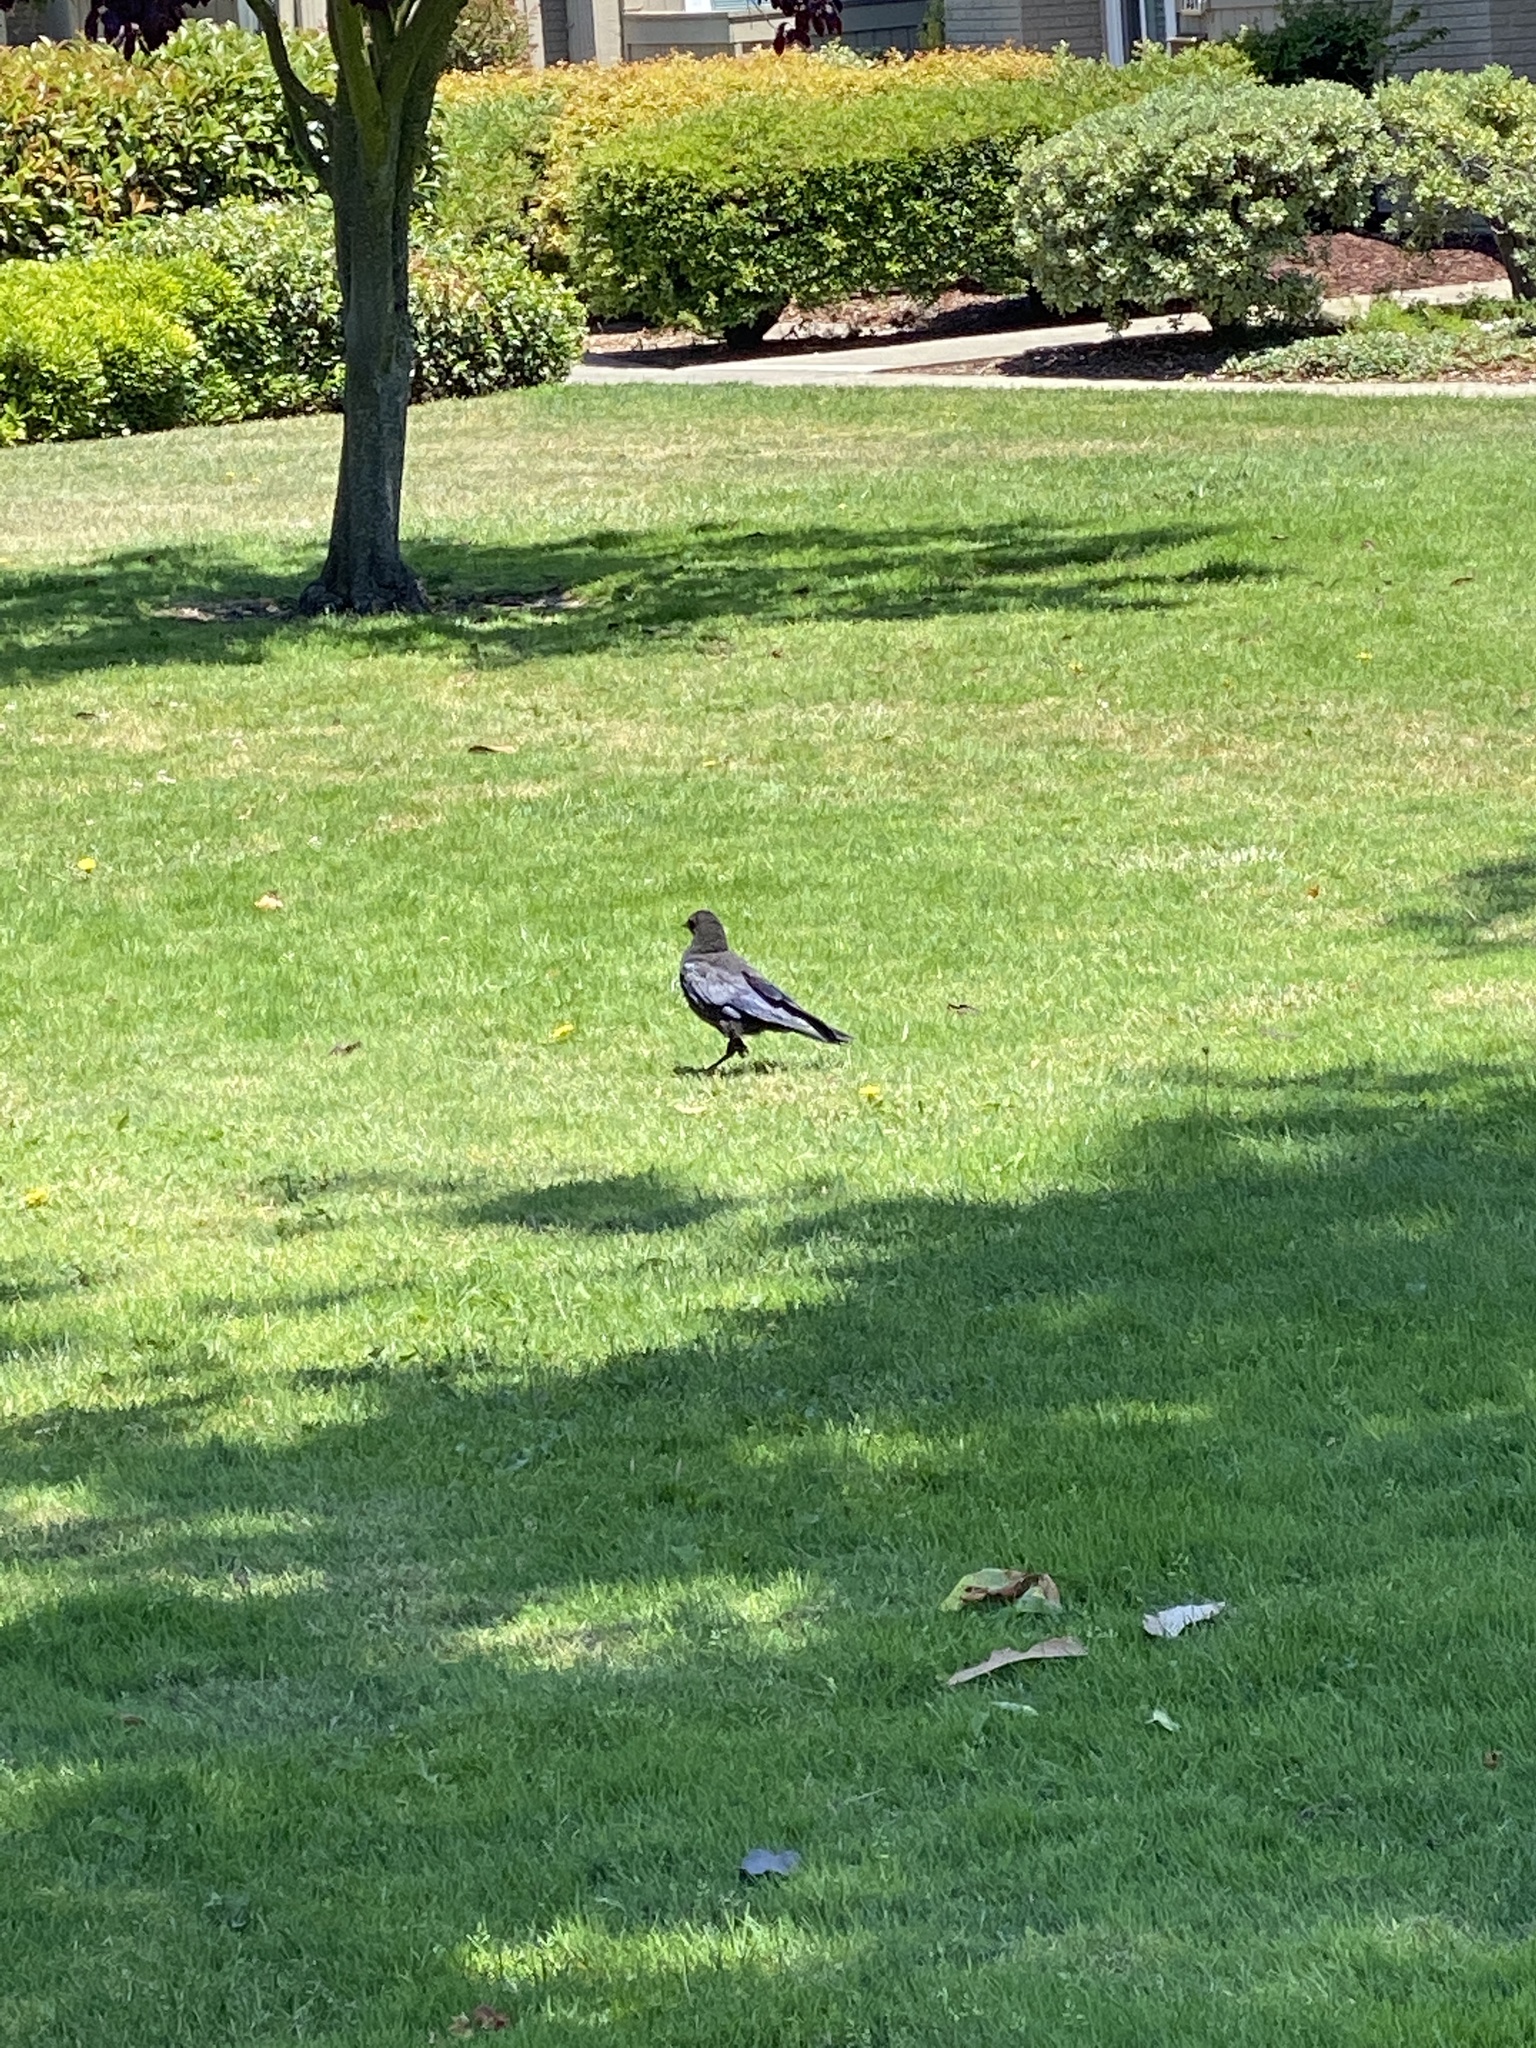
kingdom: Animalia
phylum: Chordata
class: Aves
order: Passeriformes
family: Corvidae
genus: Corvus
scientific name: Corvus brachyrhynchos
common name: American crow
